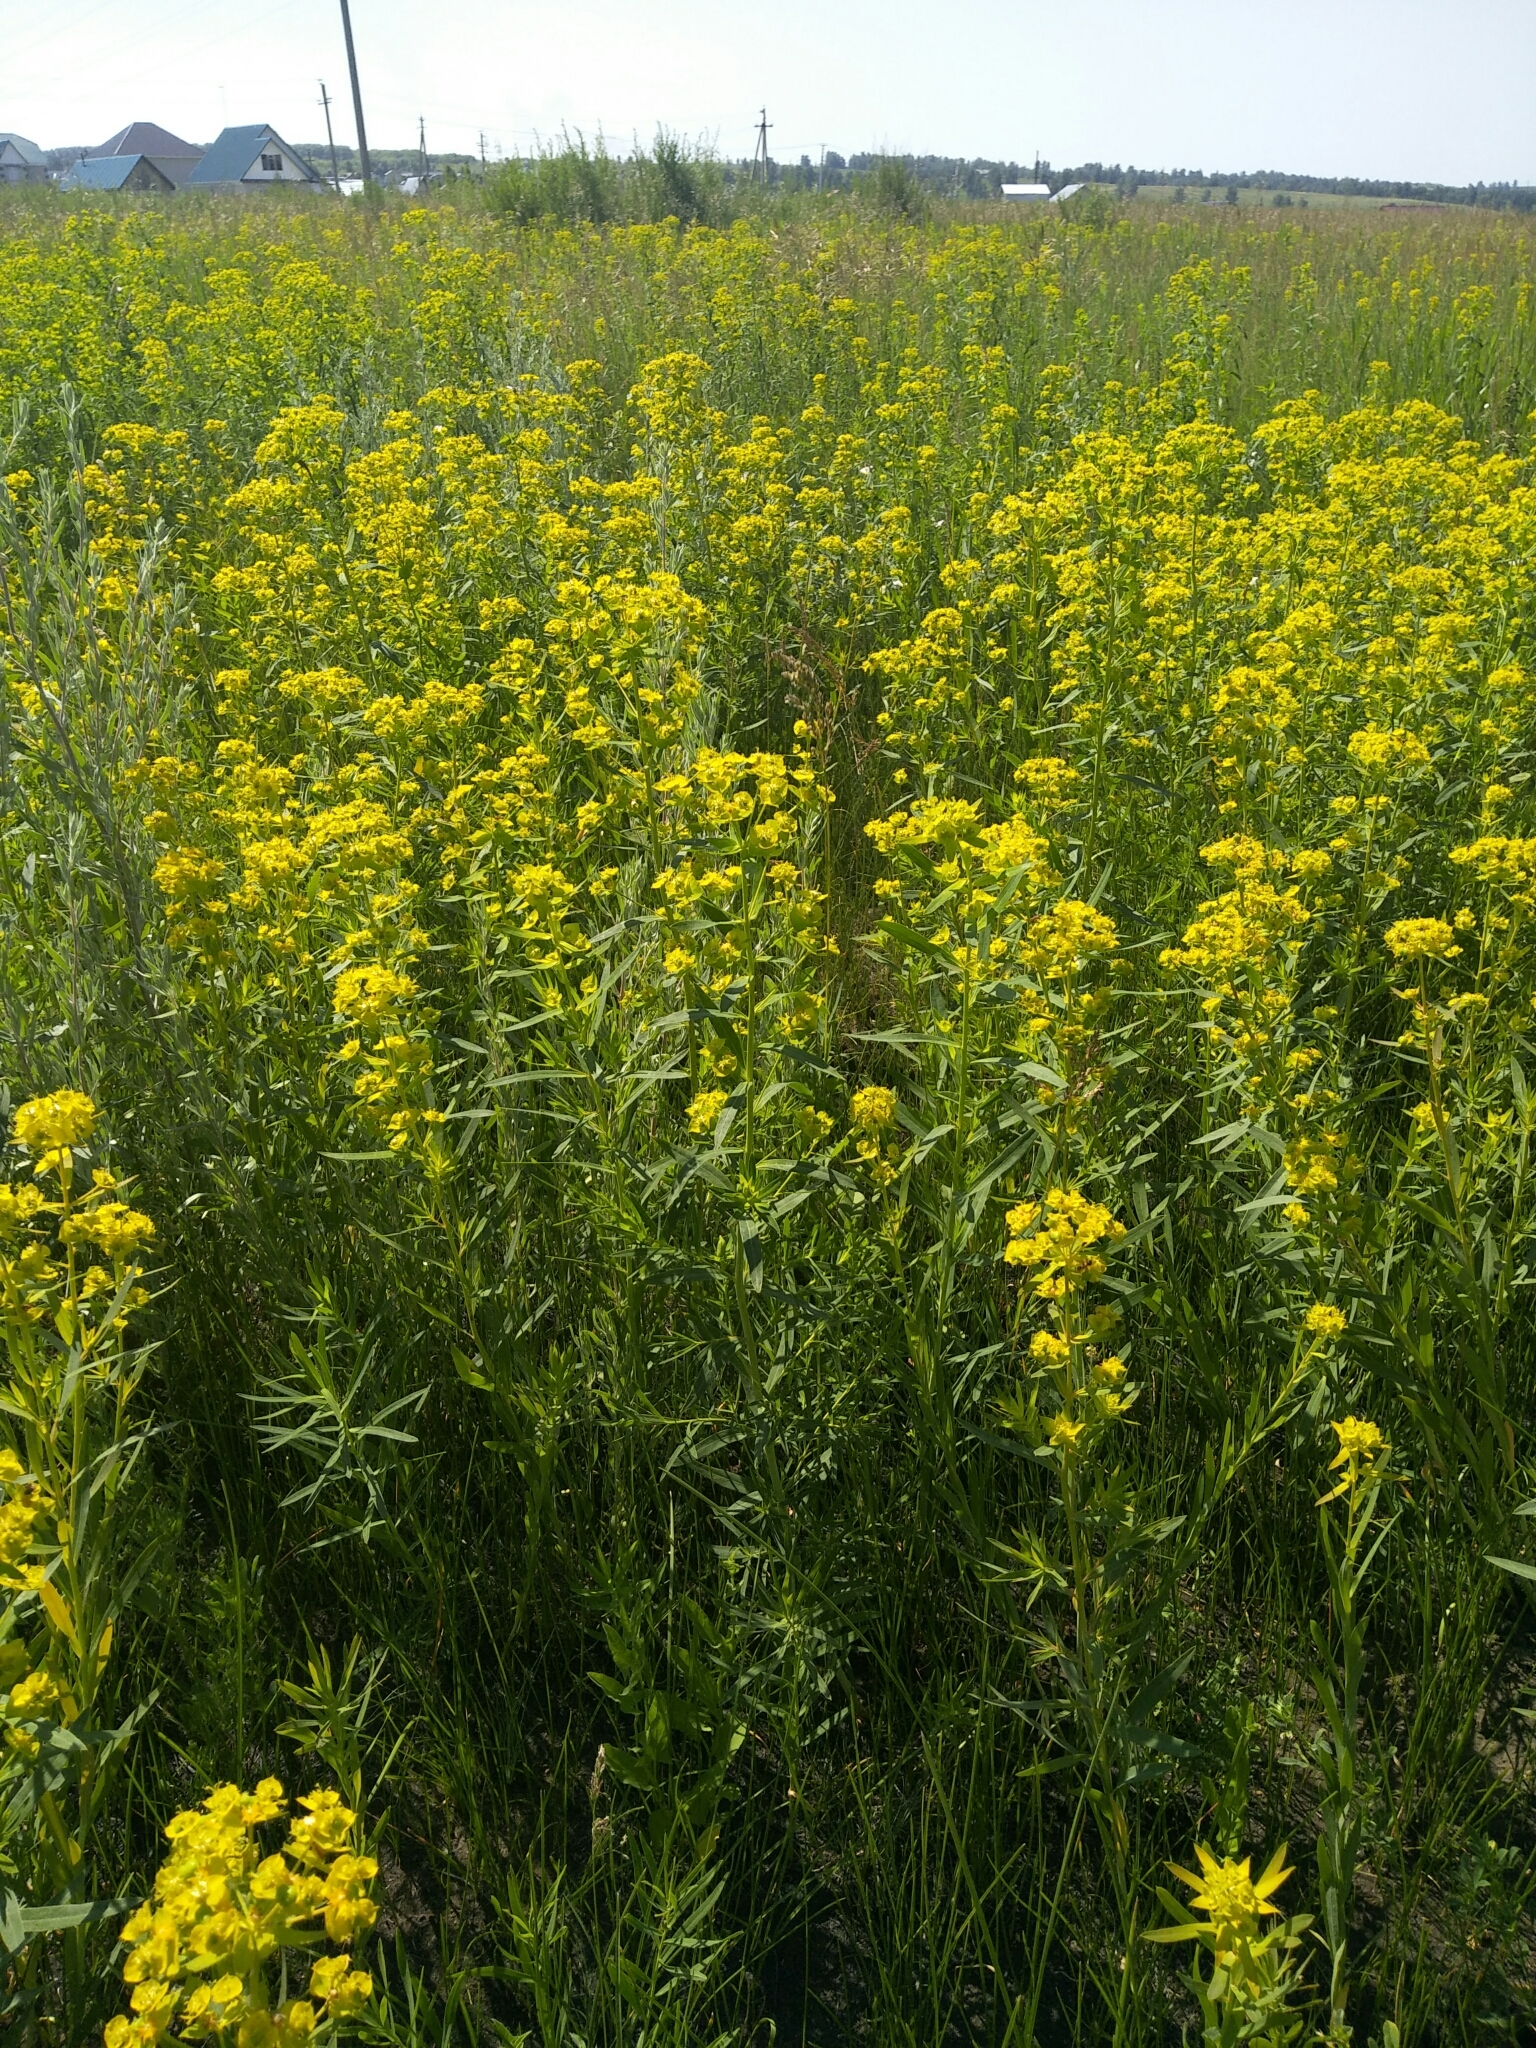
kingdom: Plantae
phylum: Tracheophyta
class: Magnoliopsida
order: Malpighiales
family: Euphorbiaceae
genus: Euphorbia
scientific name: Euphorbia virgata
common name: Leafy spurge
